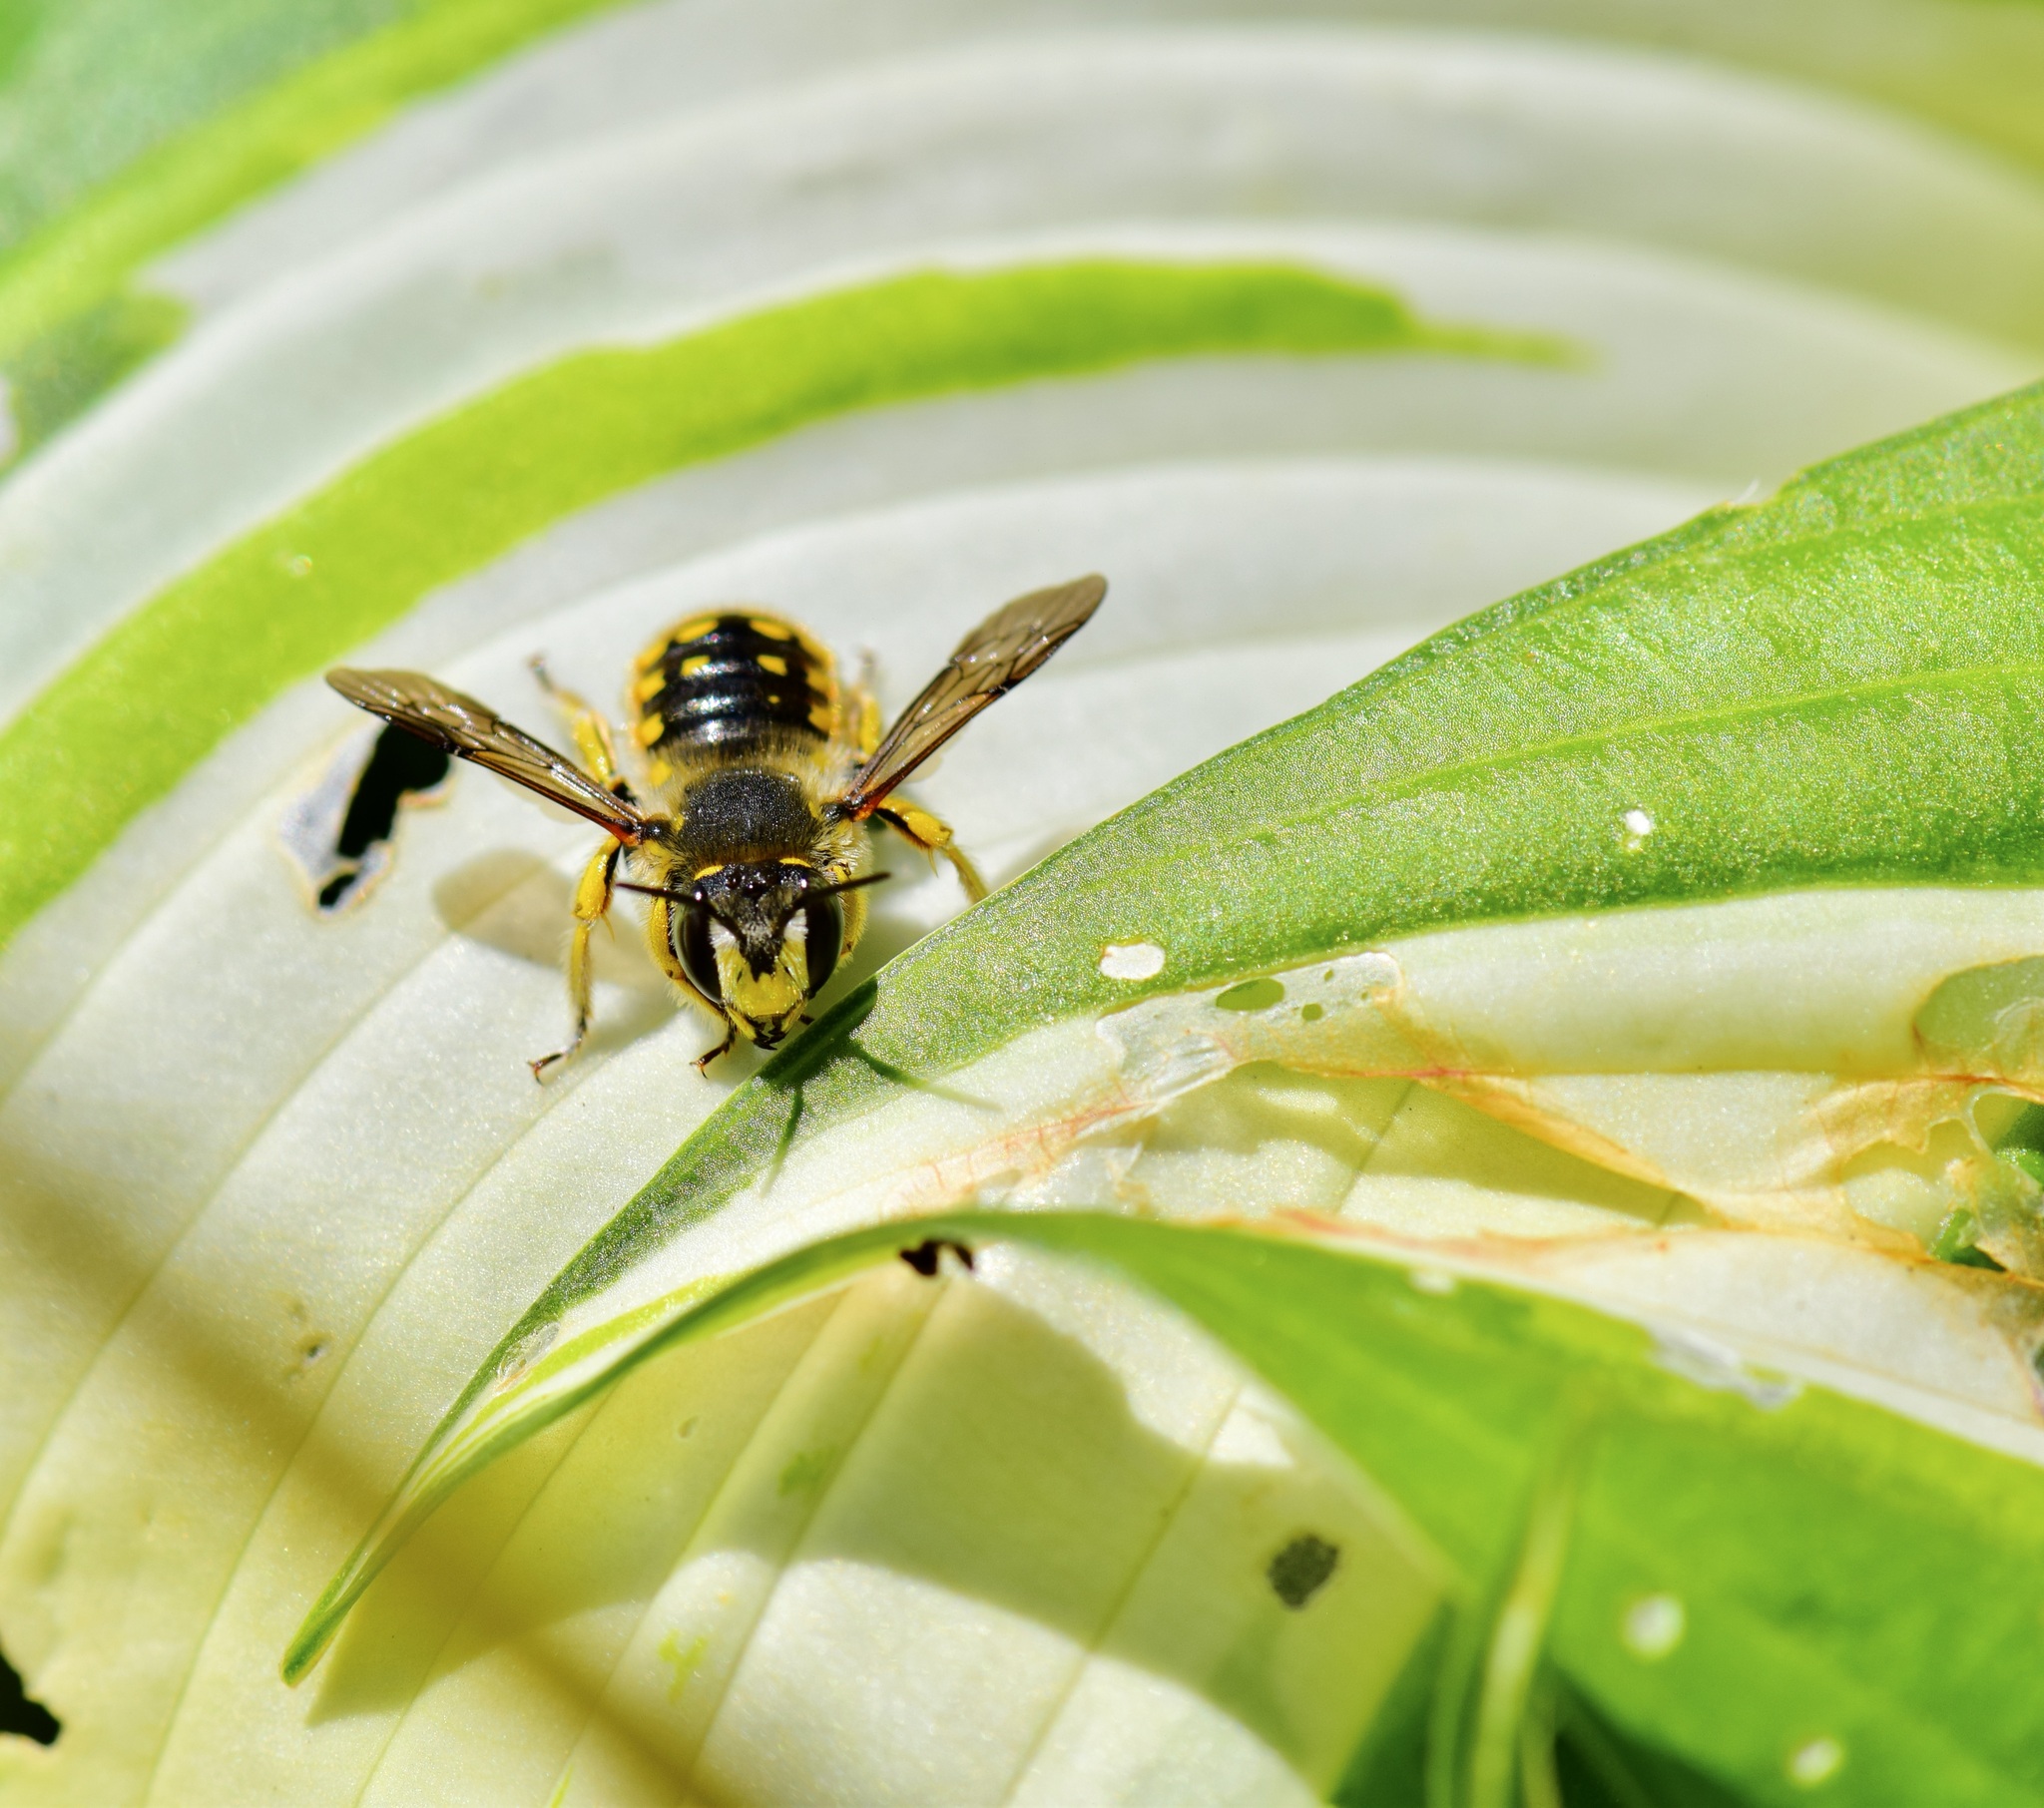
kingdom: Animalia
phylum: Arthropoda
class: Insecta
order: Hymenoptera
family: Megachilidae
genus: Anthidium
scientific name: Anthidium manicatum
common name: Wool carder bee
